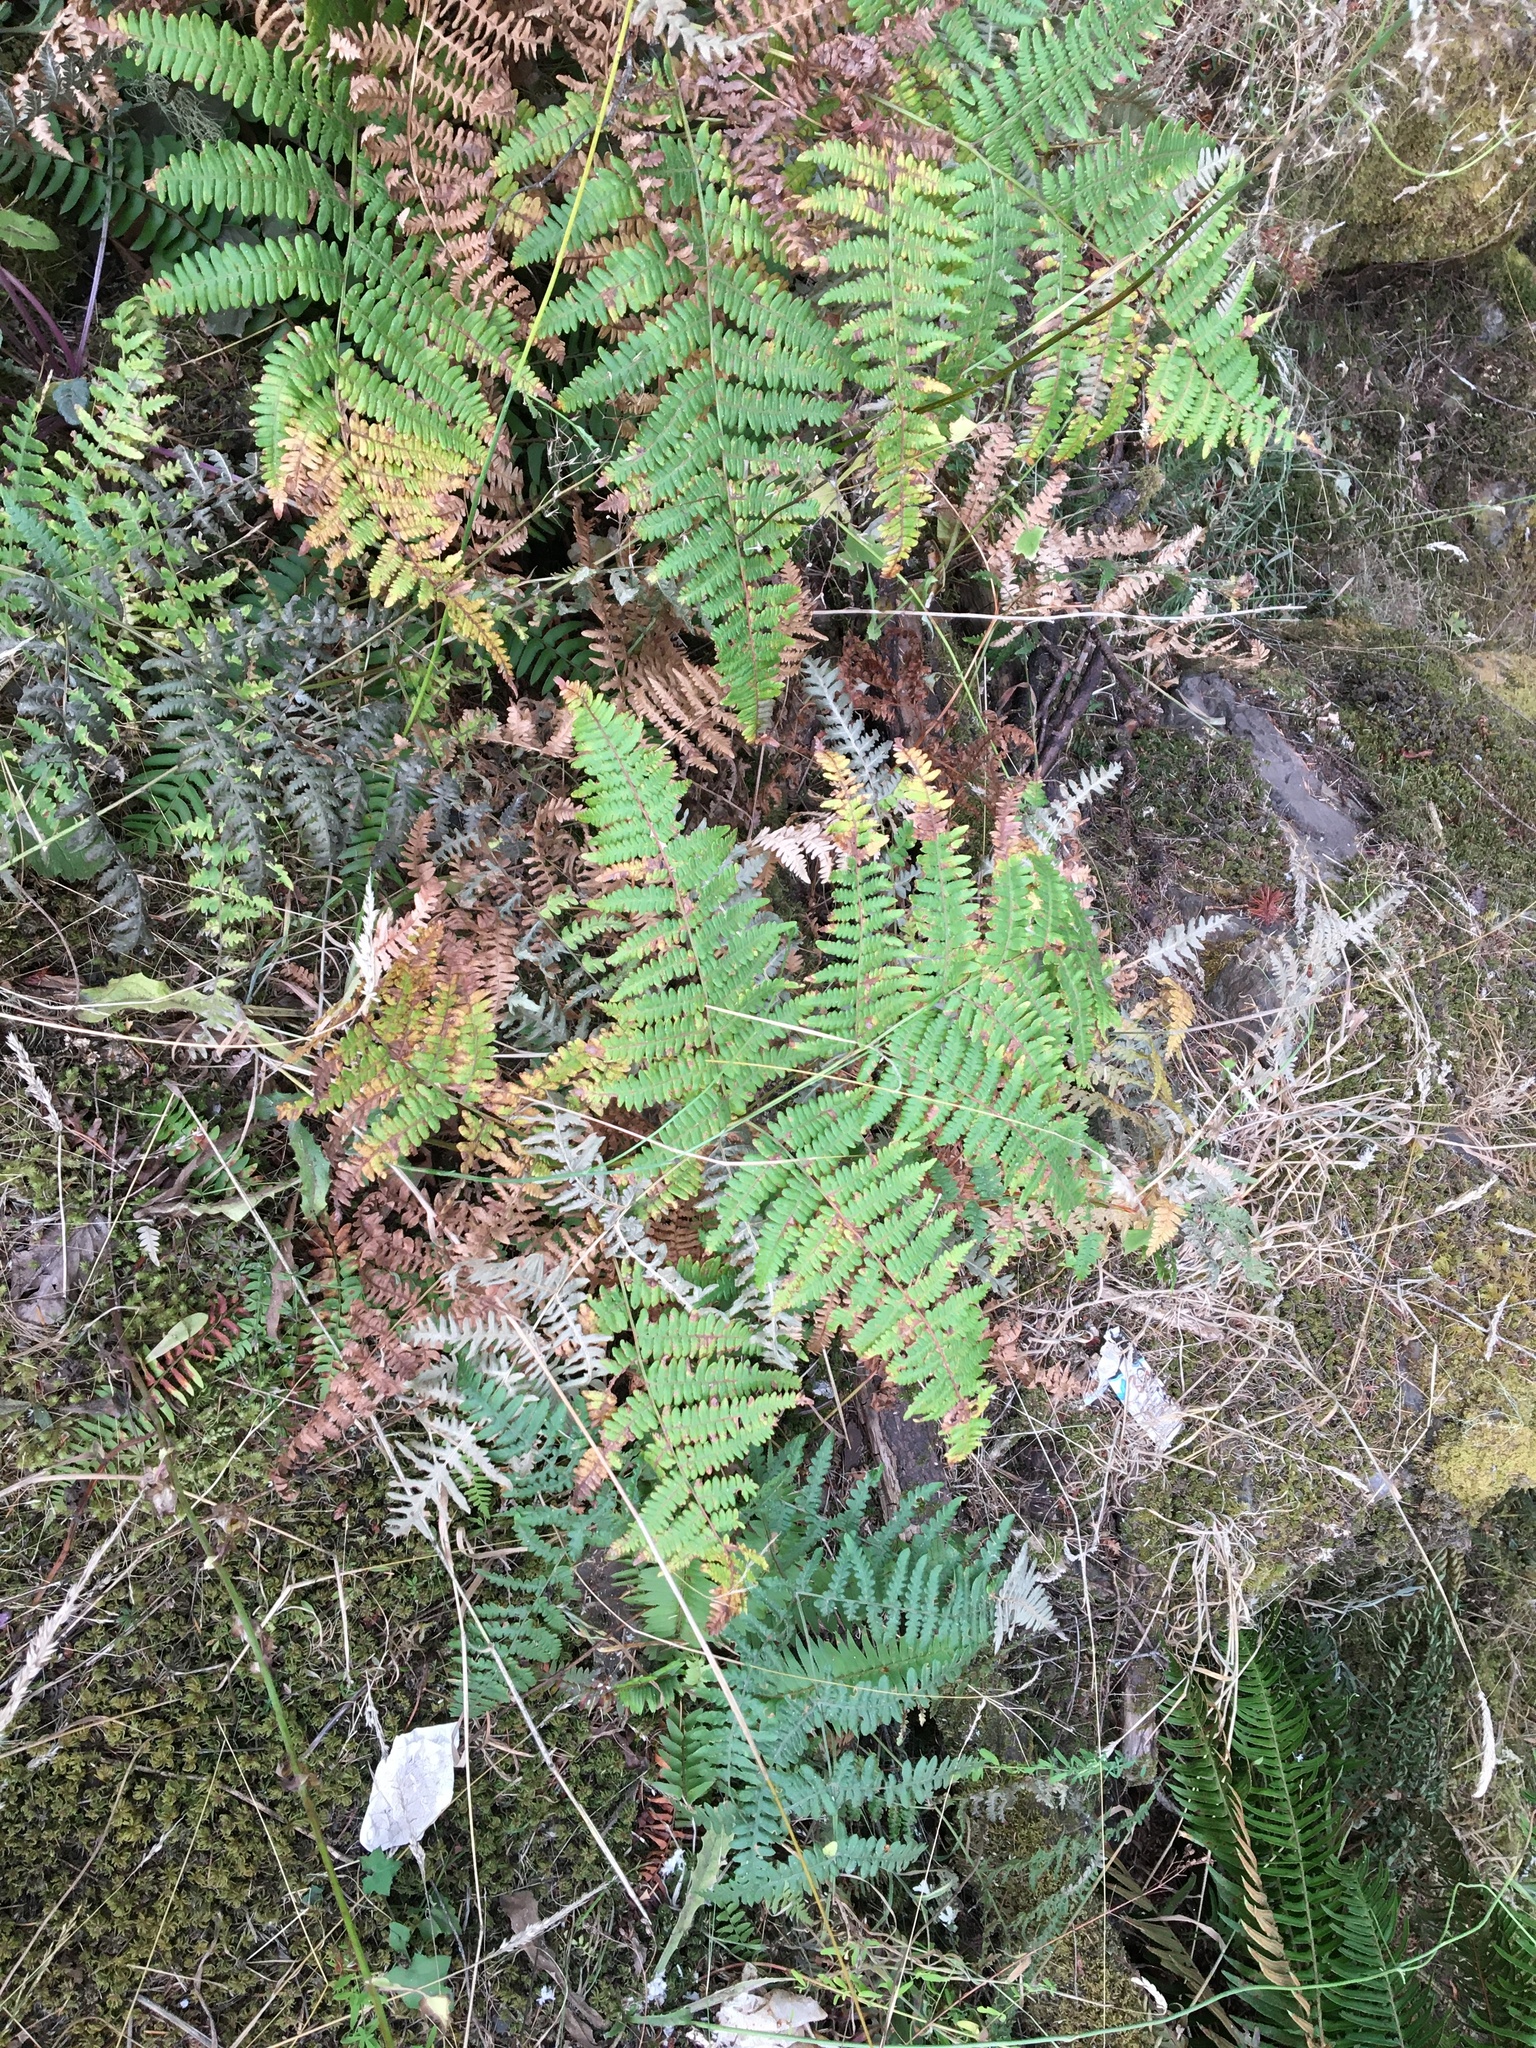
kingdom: Plantae
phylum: Tracheophyta
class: Polypodiopsida
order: Polypodiales
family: Dennstaedtiaceae
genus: Pteridium
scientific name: Pteridium aquilinum
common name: Bracken
